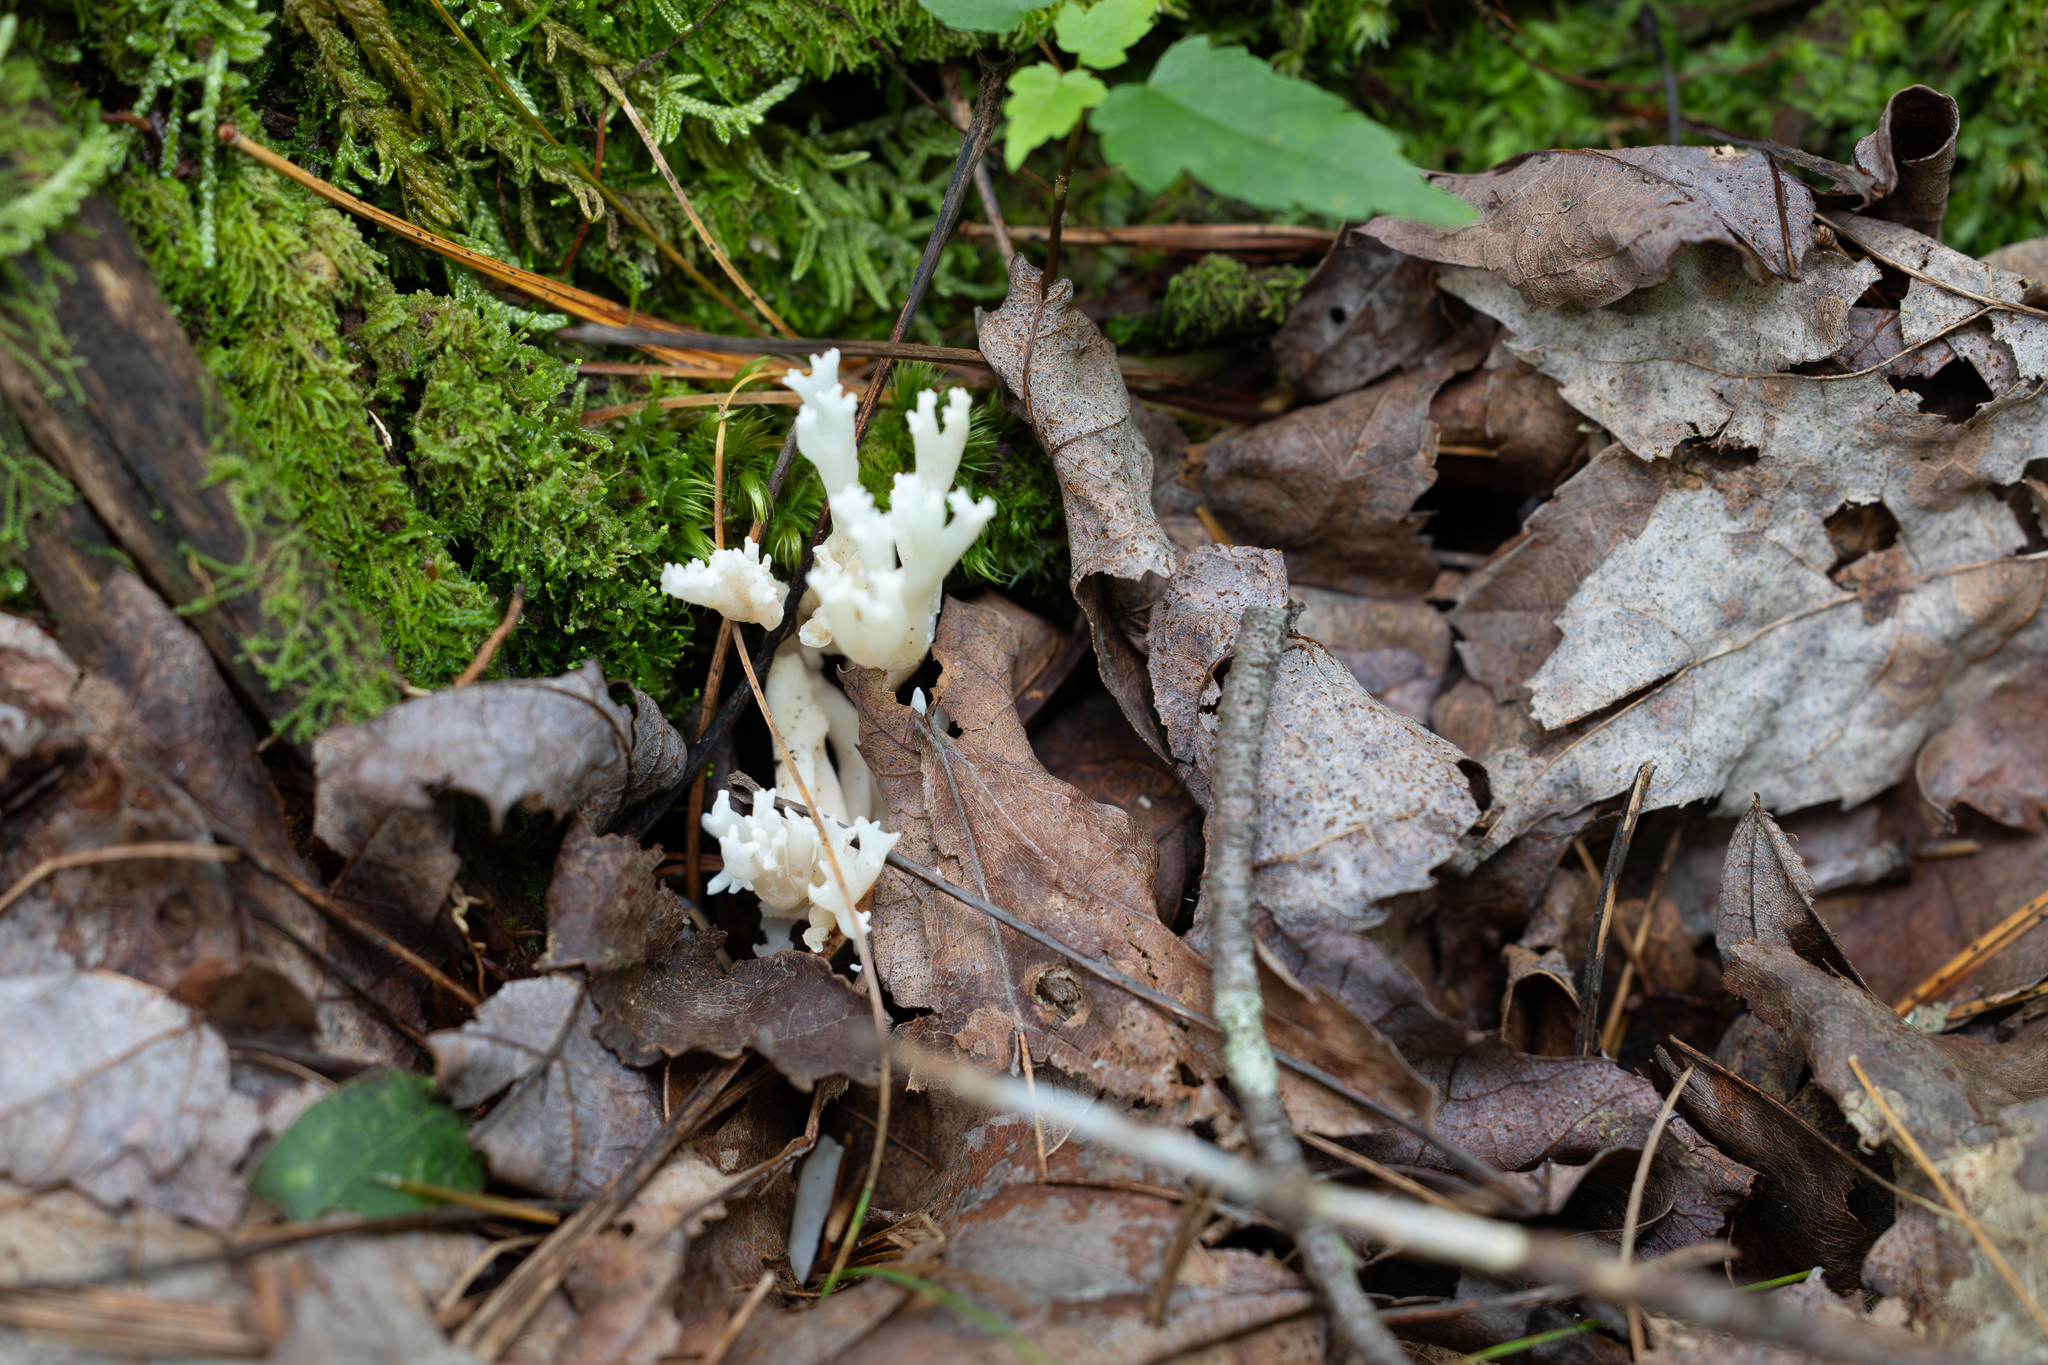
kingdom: Fungi
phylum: Basidiomycota
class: Agaricomycetes
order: Agaricales
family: Clavariaceae
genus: Ramariopsis
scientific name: Ramariopsis kunzei
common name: Ivory coral
